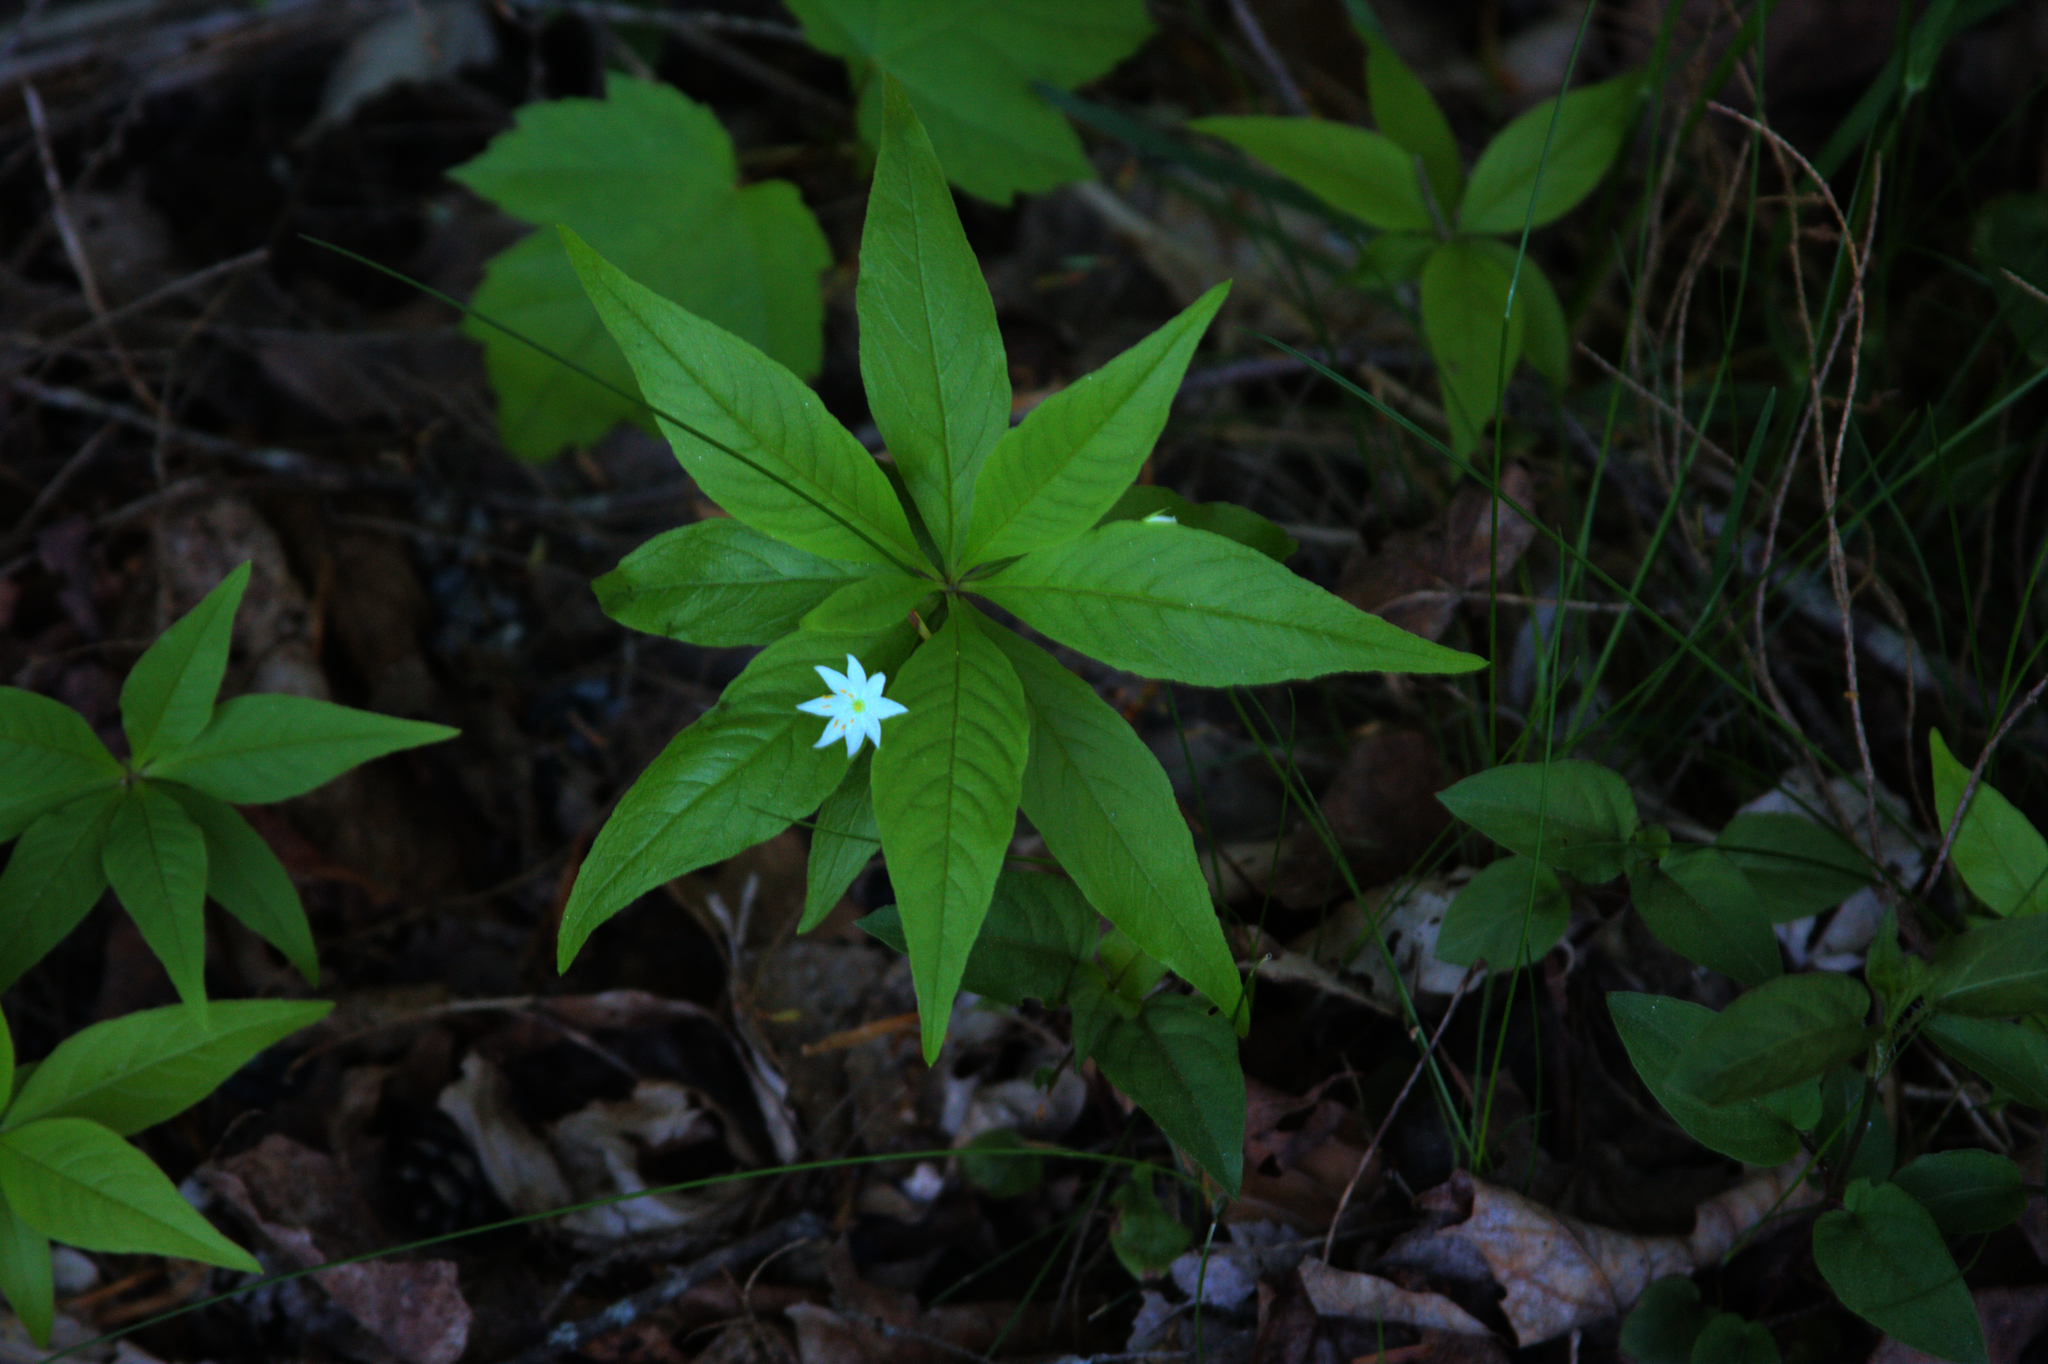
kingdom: Plantae
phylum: Tracheophyta
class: Magnoliopsida
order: Ericales
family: Primulaceae
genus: Lysimachia
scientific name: Lysimachia borealis
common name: American starflower
